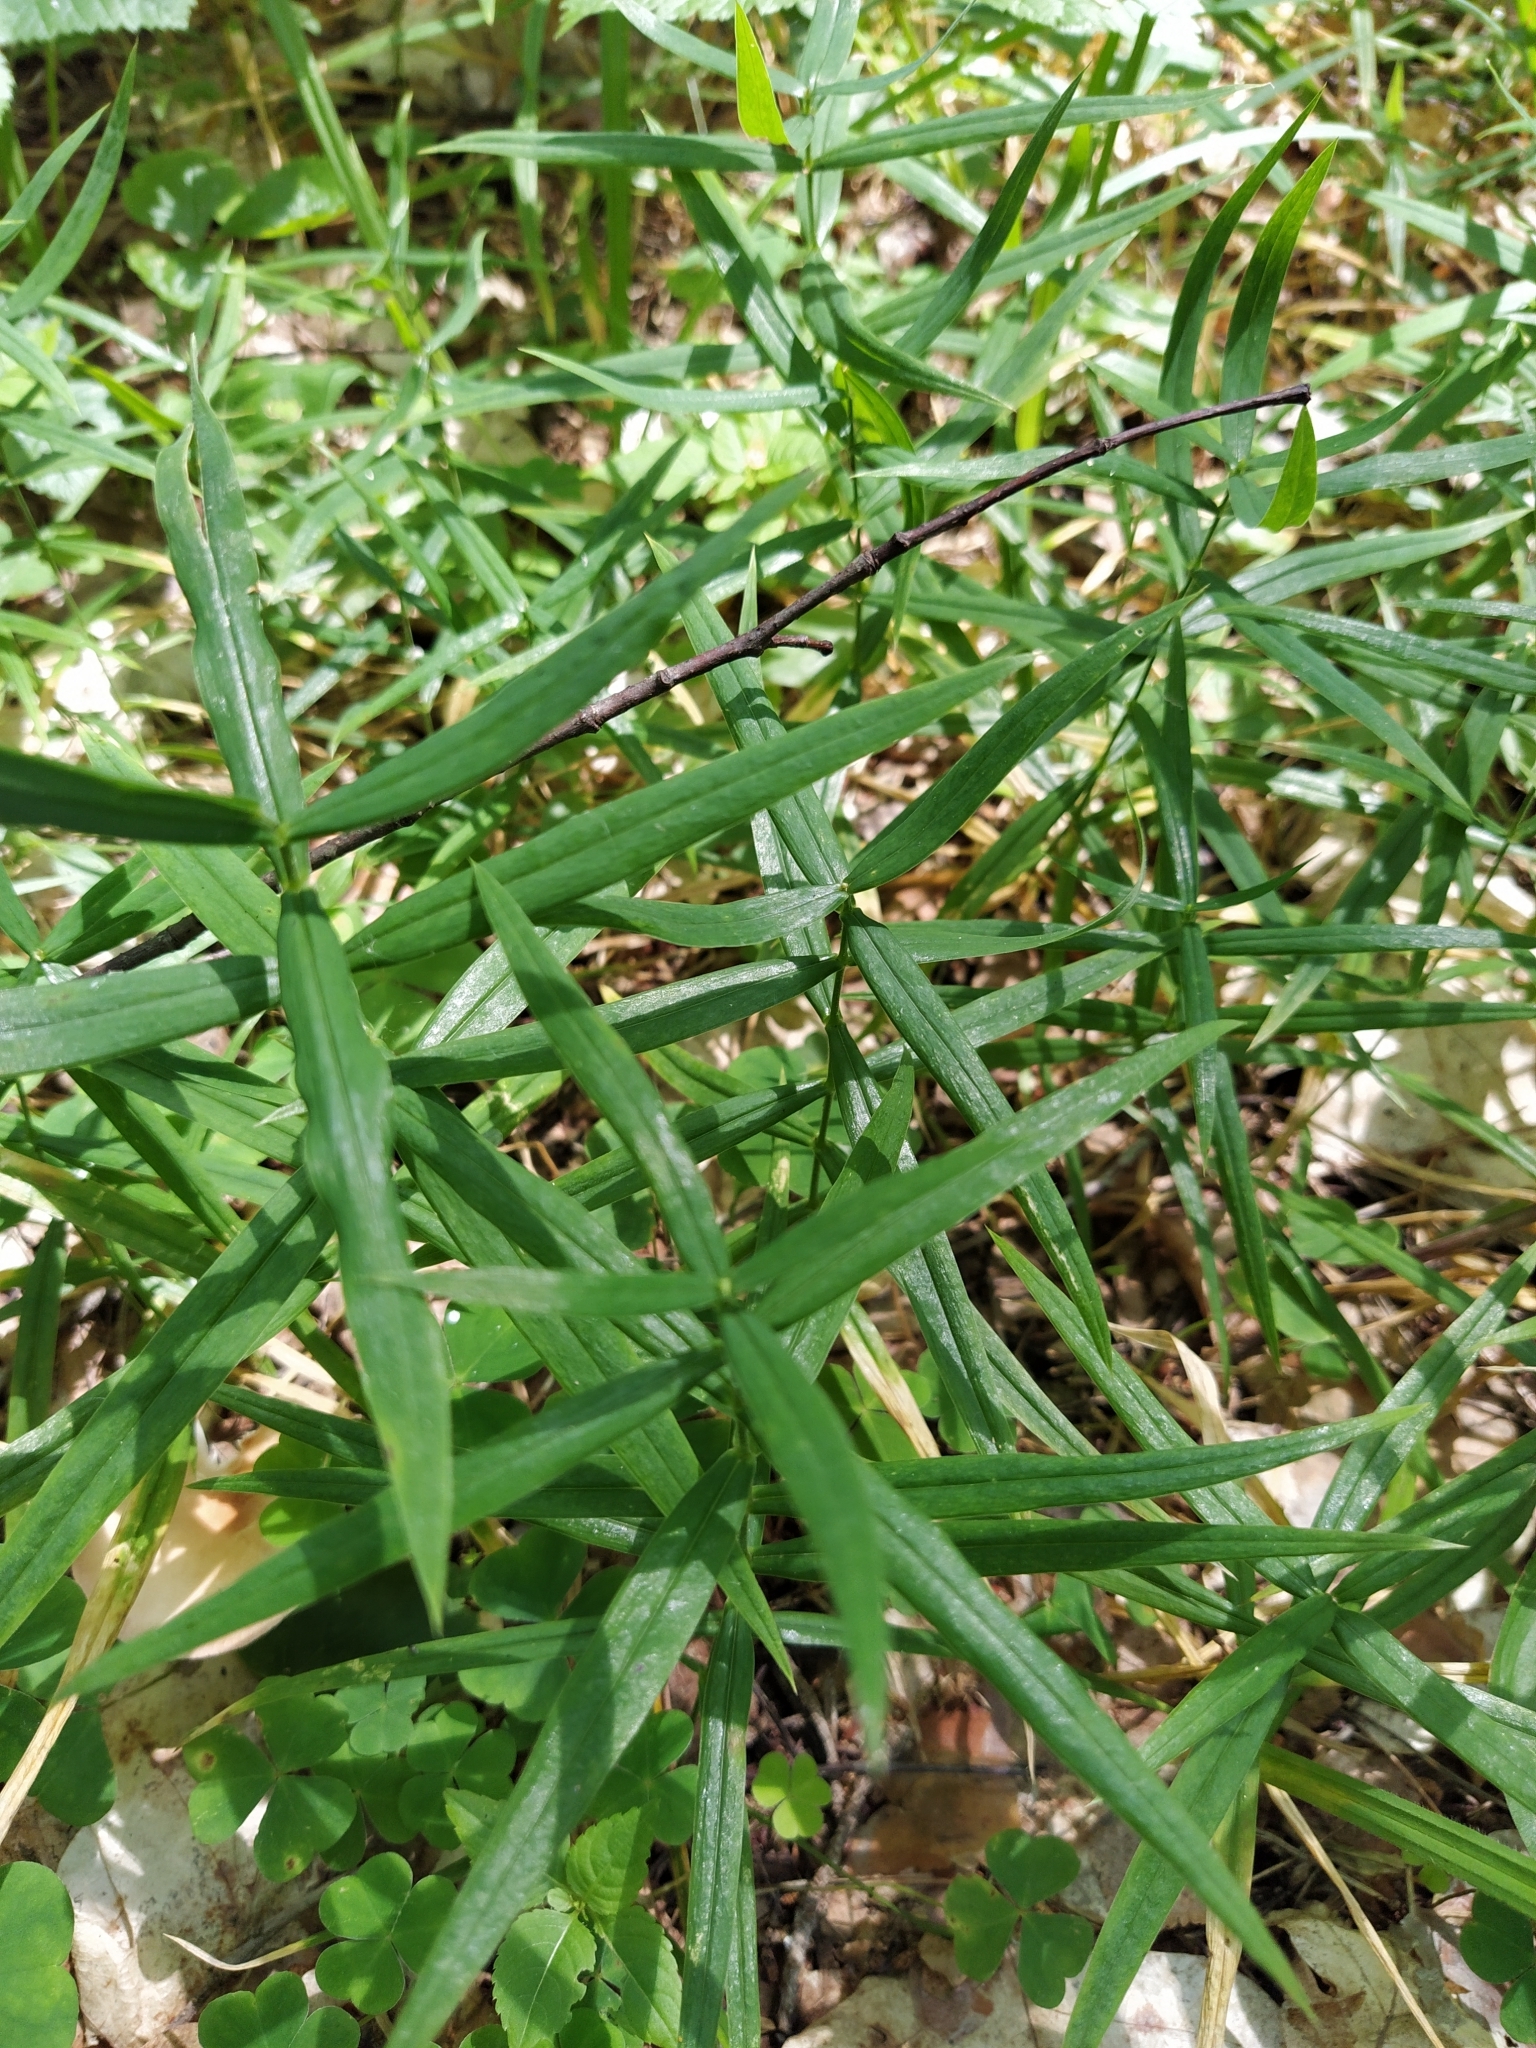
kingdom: Plantae
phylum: Tracheophyta
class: Magnoliopsida
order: Caryophyllales
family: Caryophyllaceae
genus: Rabelera
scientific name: Rabelera holostea
